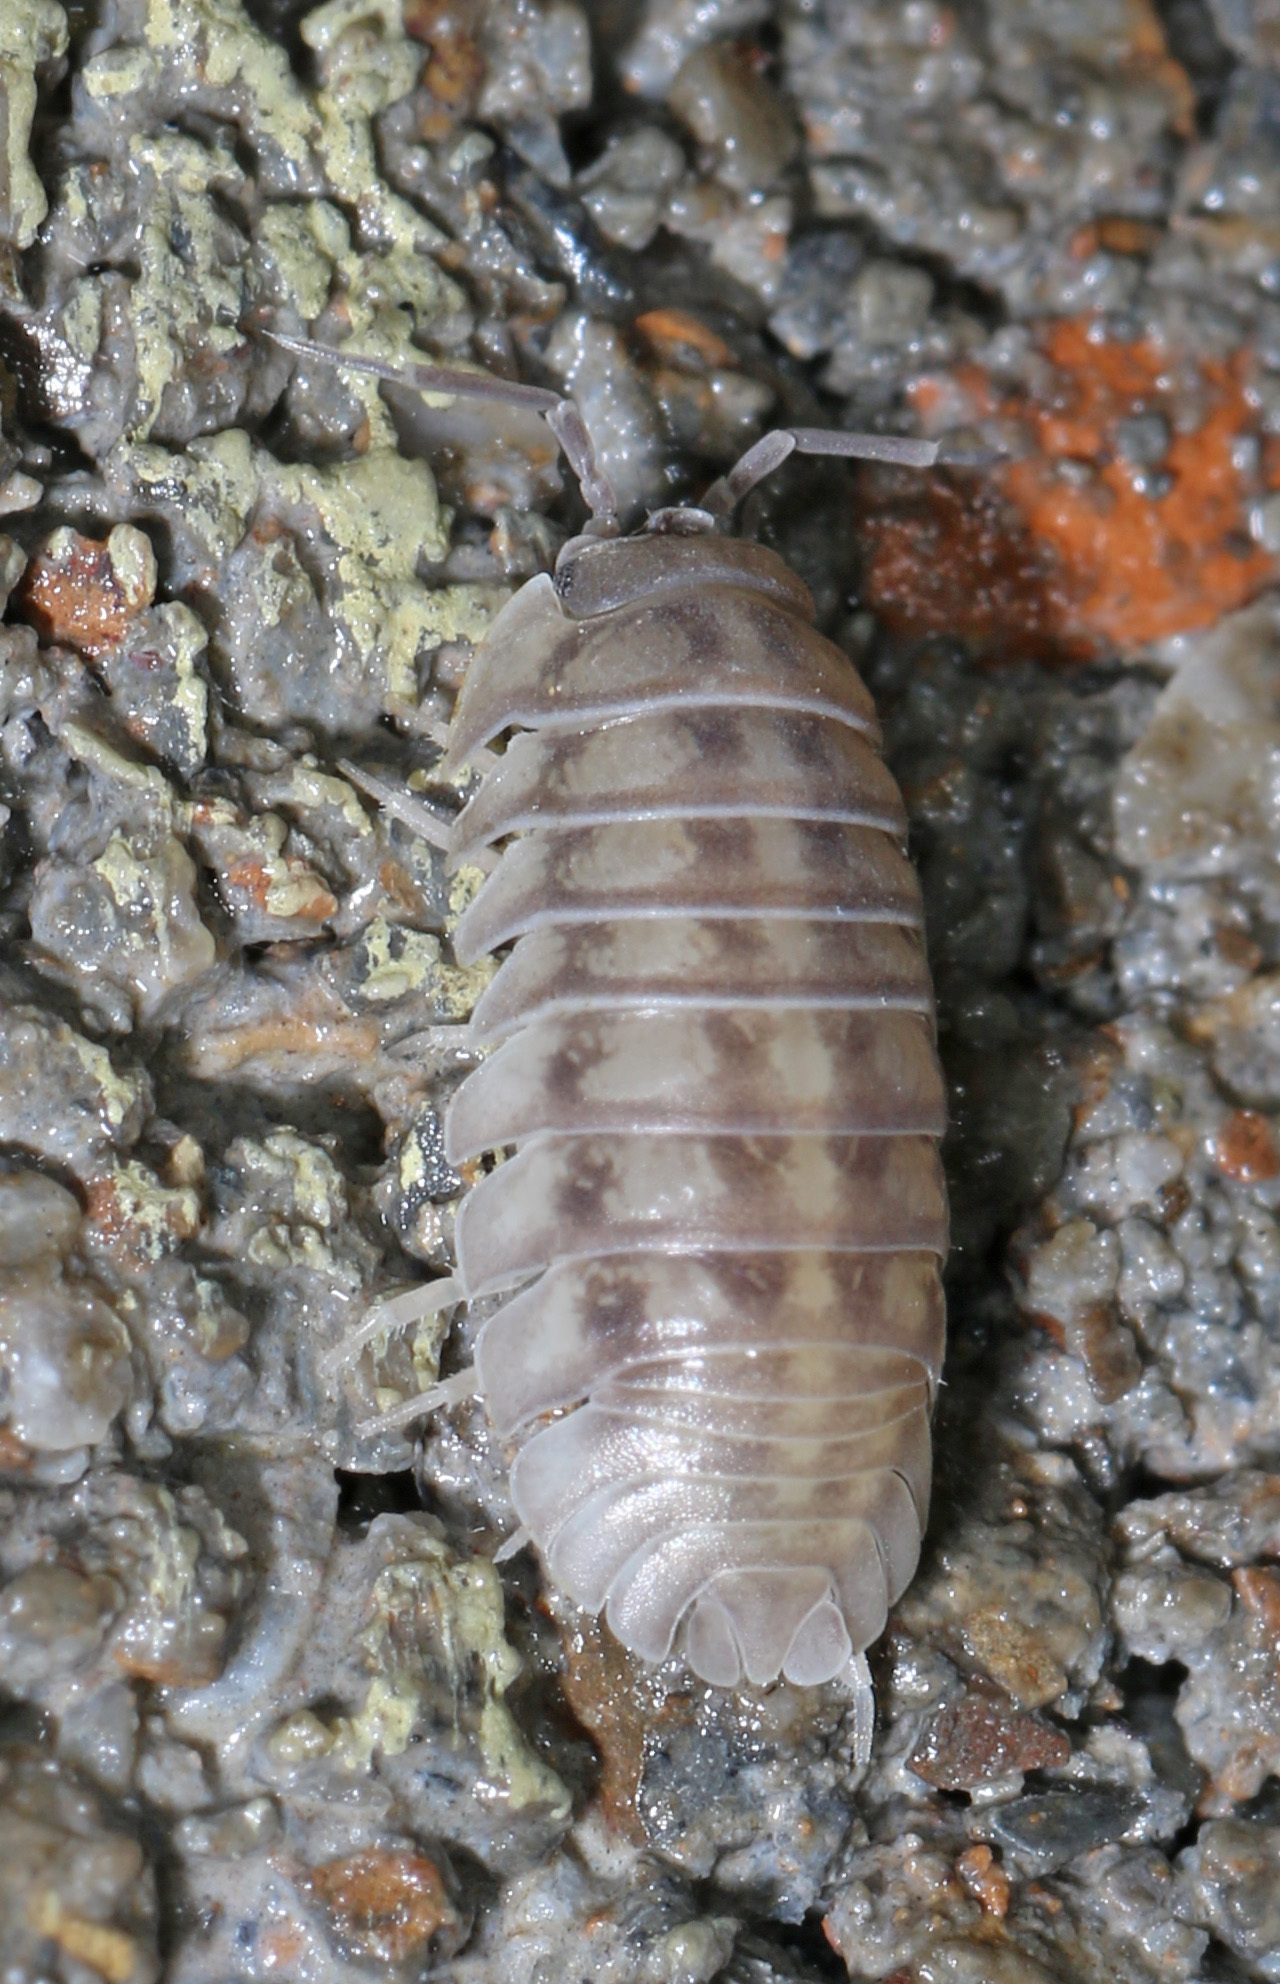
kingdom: Animalia
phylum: Arthropoda
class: Malacostraca
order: Isopoda
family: Armadillidiidae
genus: Armadillidium
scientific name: Armadillidium nasatum
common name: Isopod
